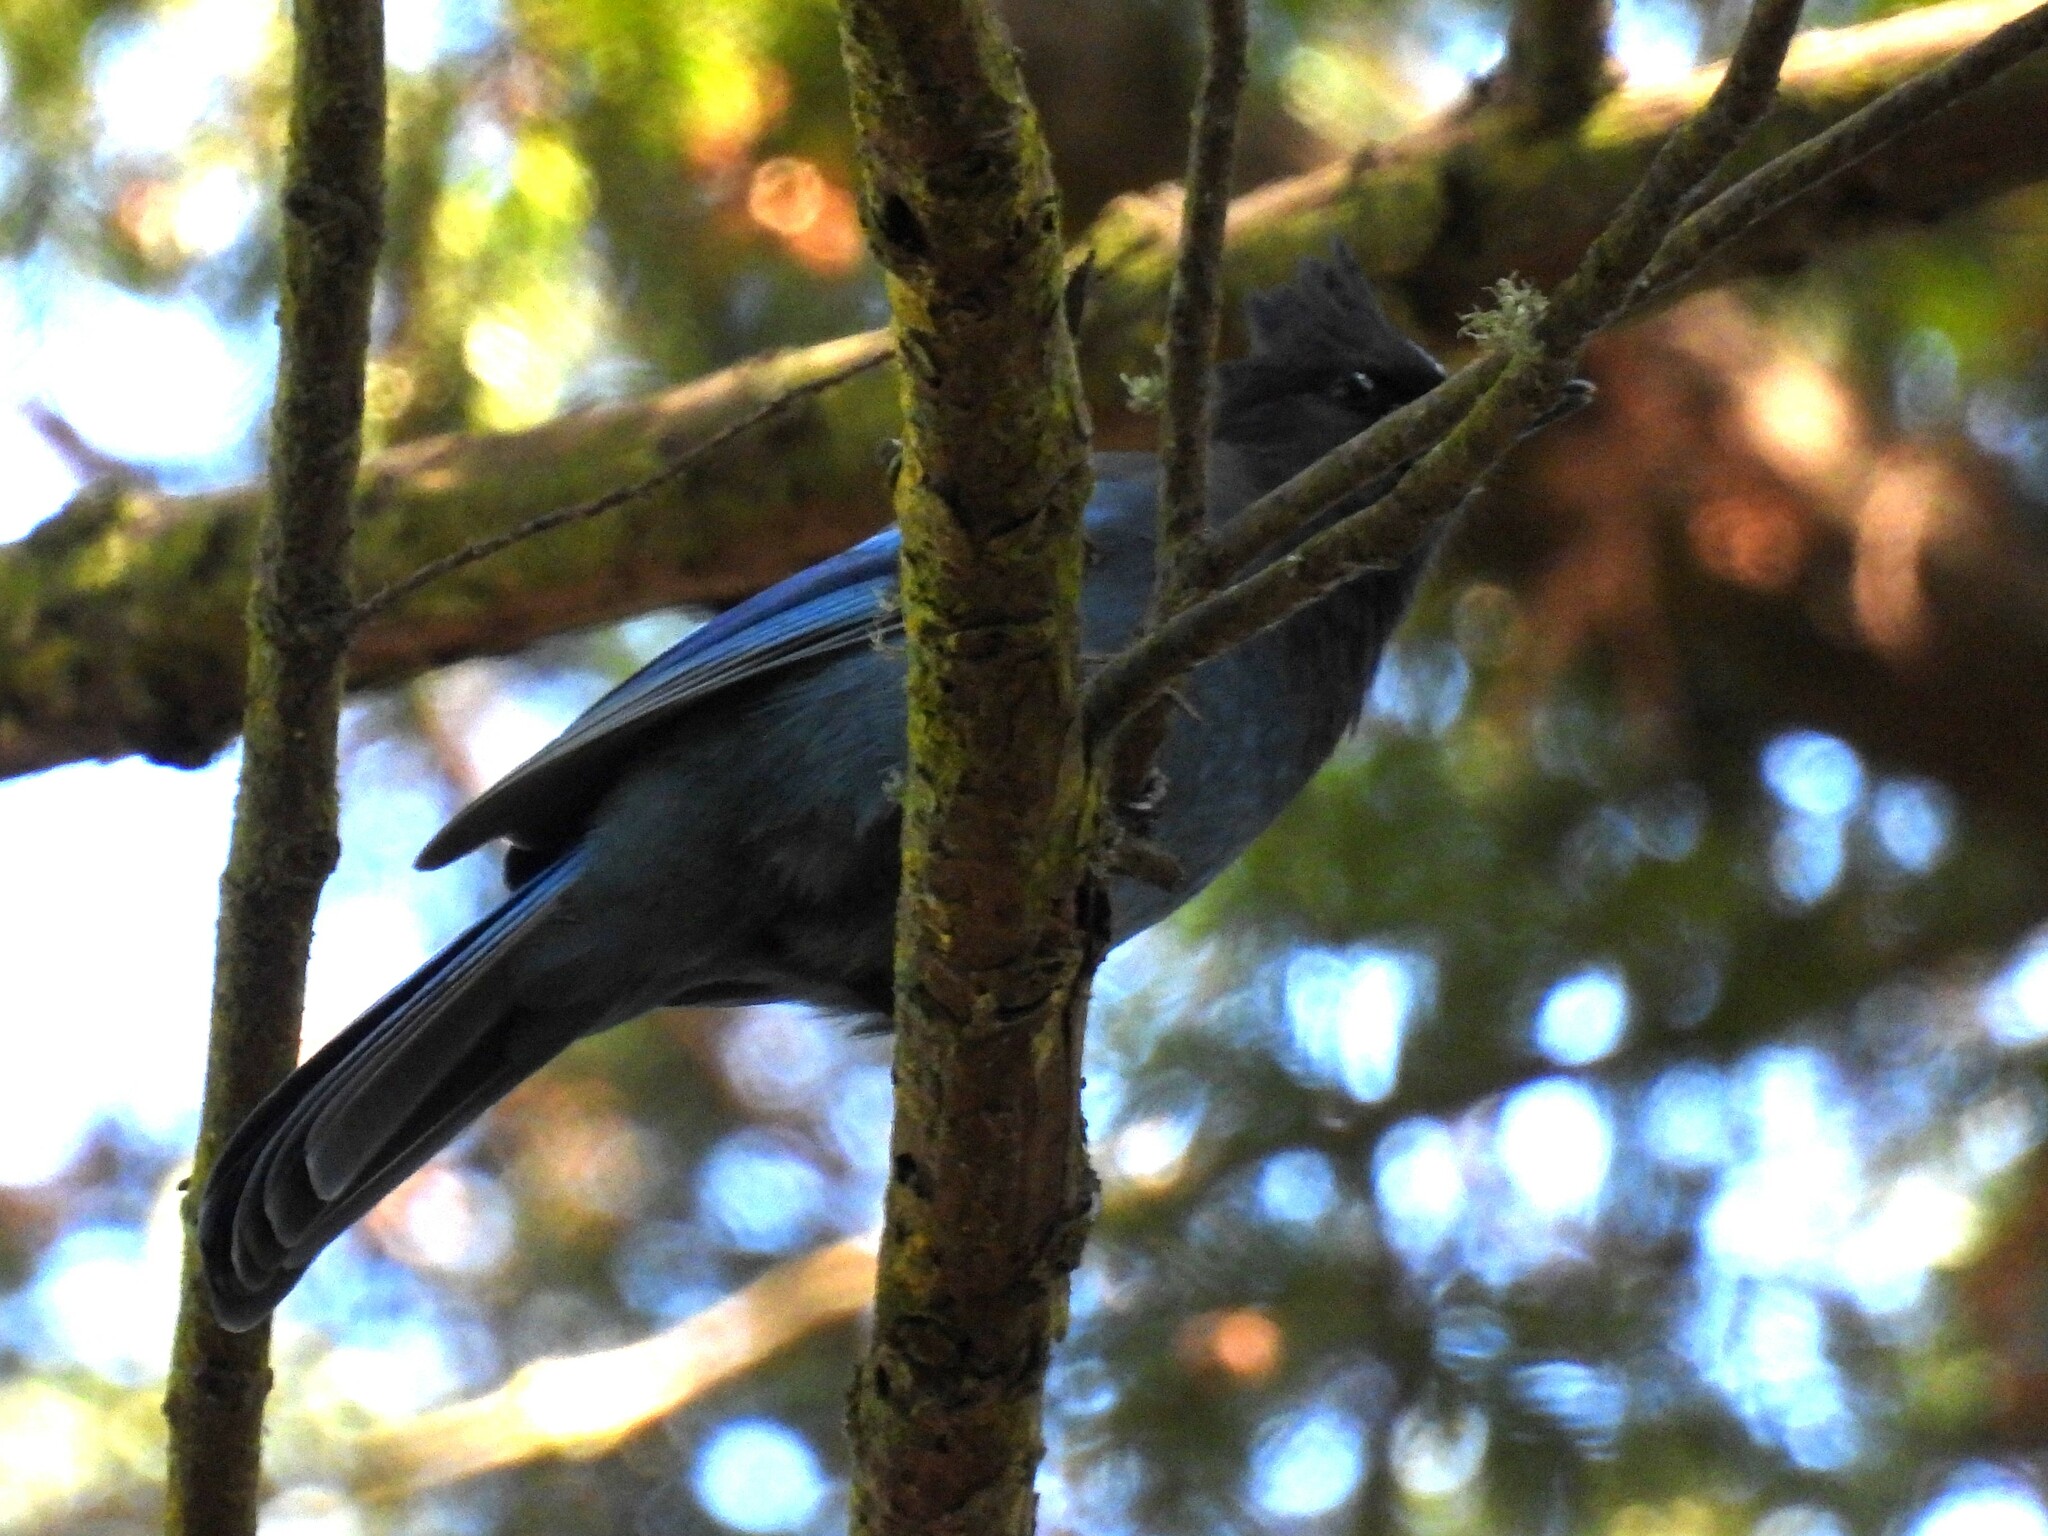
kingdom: Animalia
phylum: Chordata
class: Aves
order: Passeriformes
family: Corvidae
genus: Cyanocitta
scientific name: Cyanocitta stelleri
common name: Steller's jay
